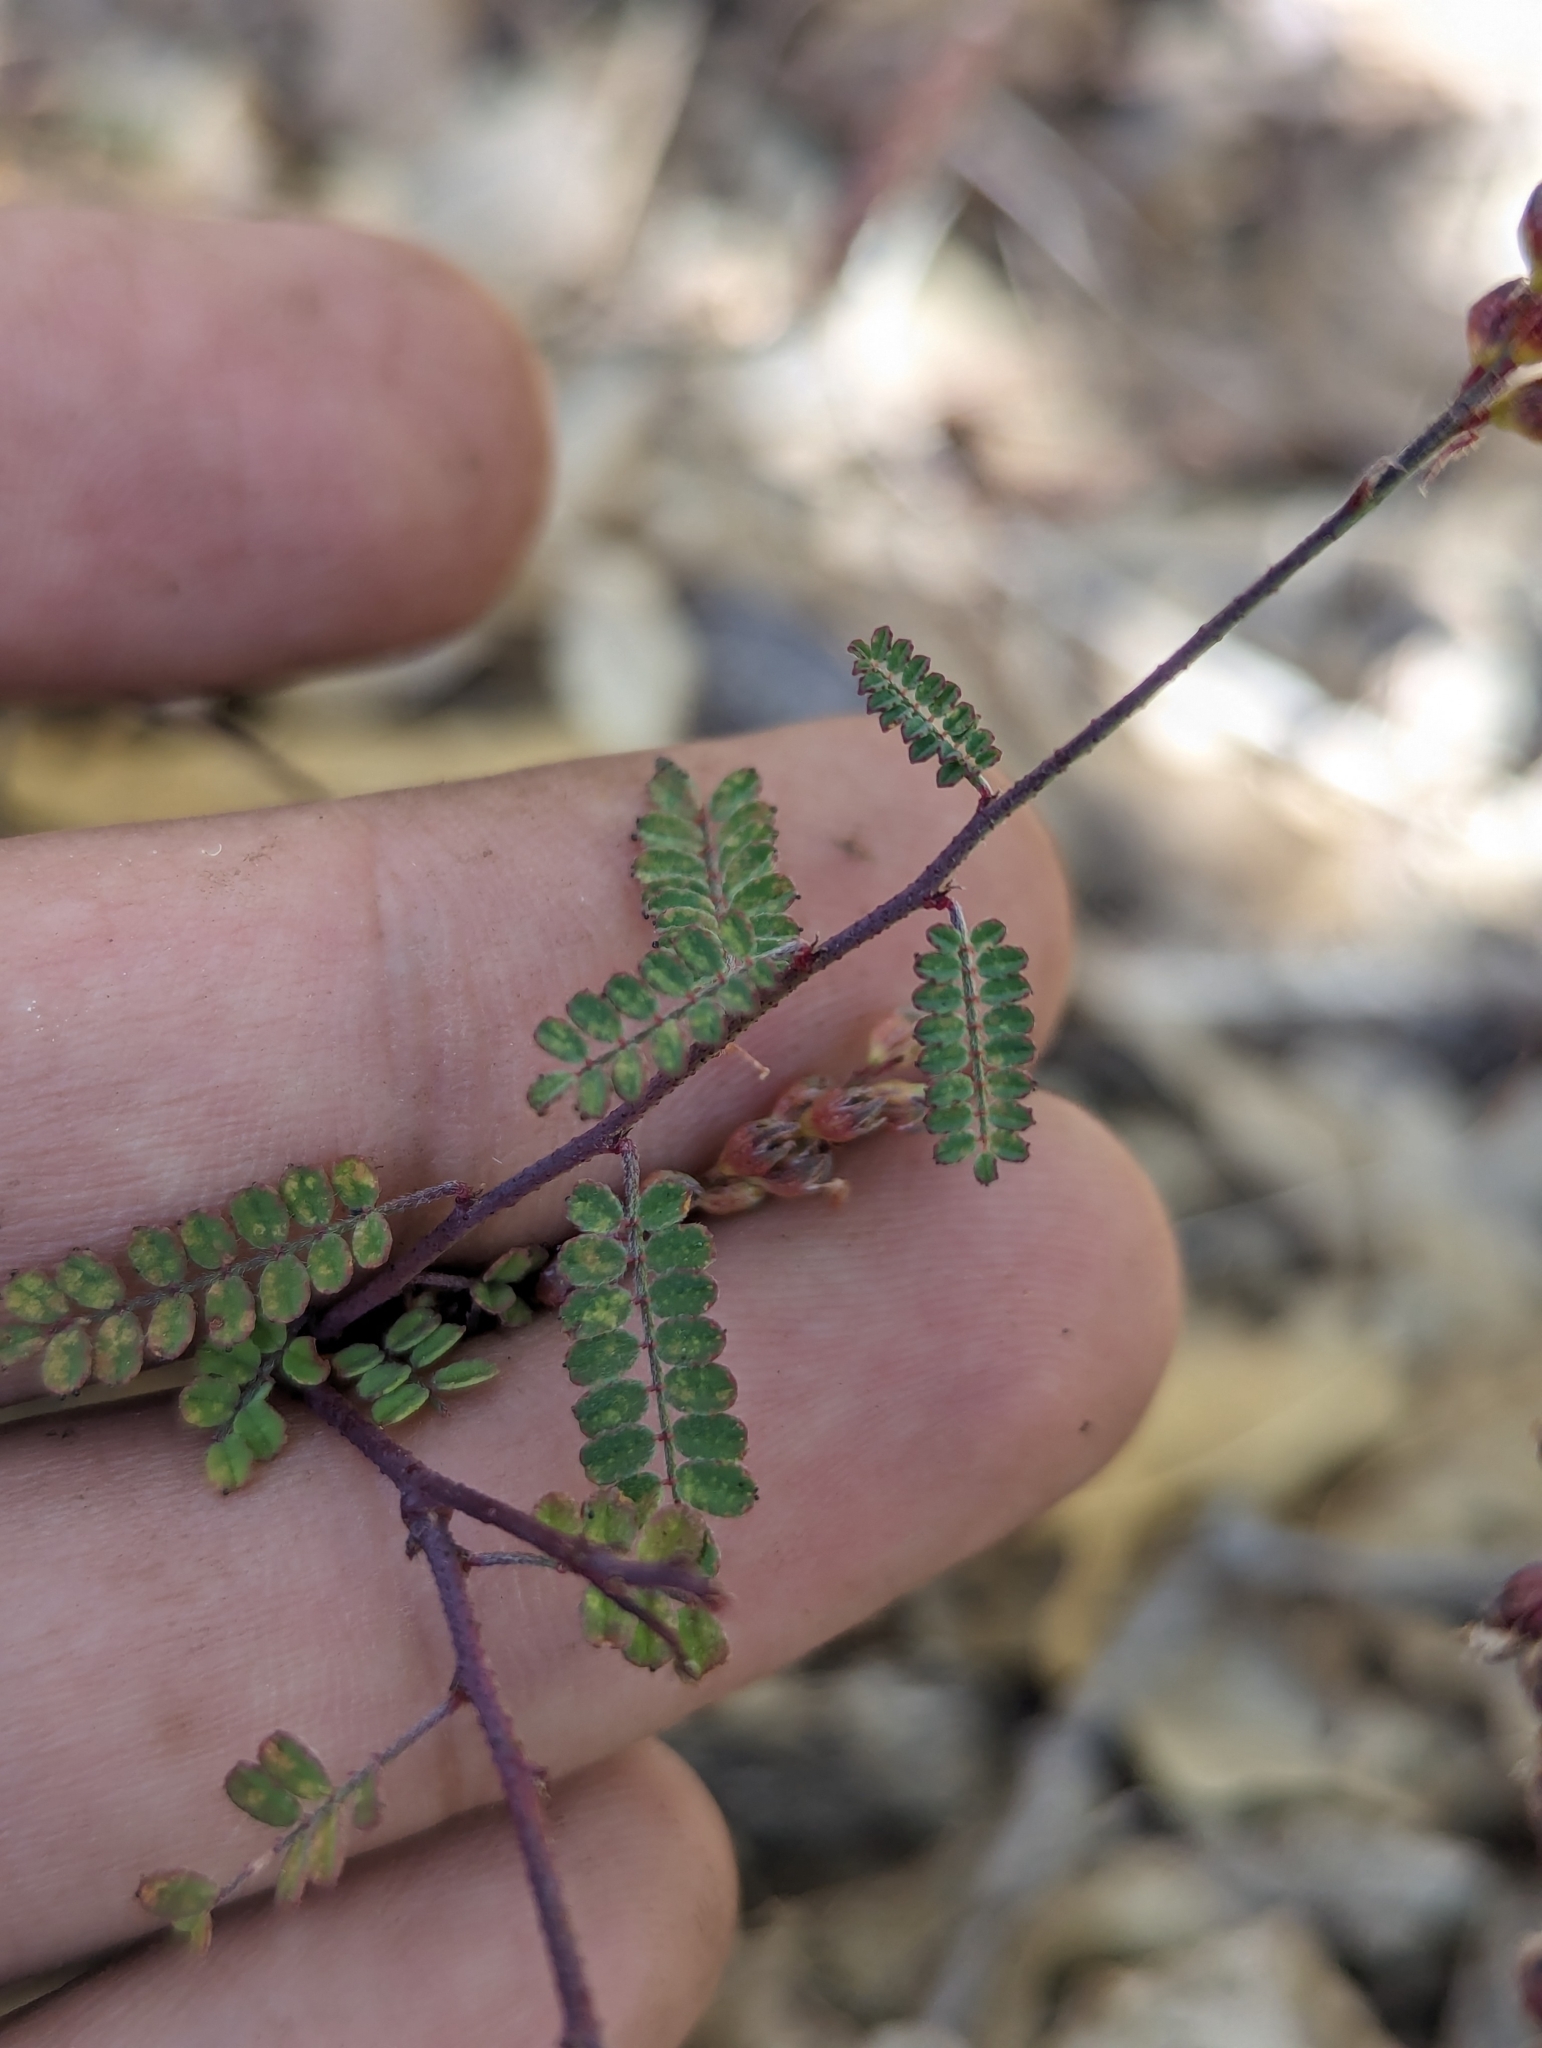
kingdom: Plantae
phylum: Tracheophyta
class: Magnoliopsida
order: Fabales
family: Fabaceae
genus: Marina
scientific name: Marina victoriae
